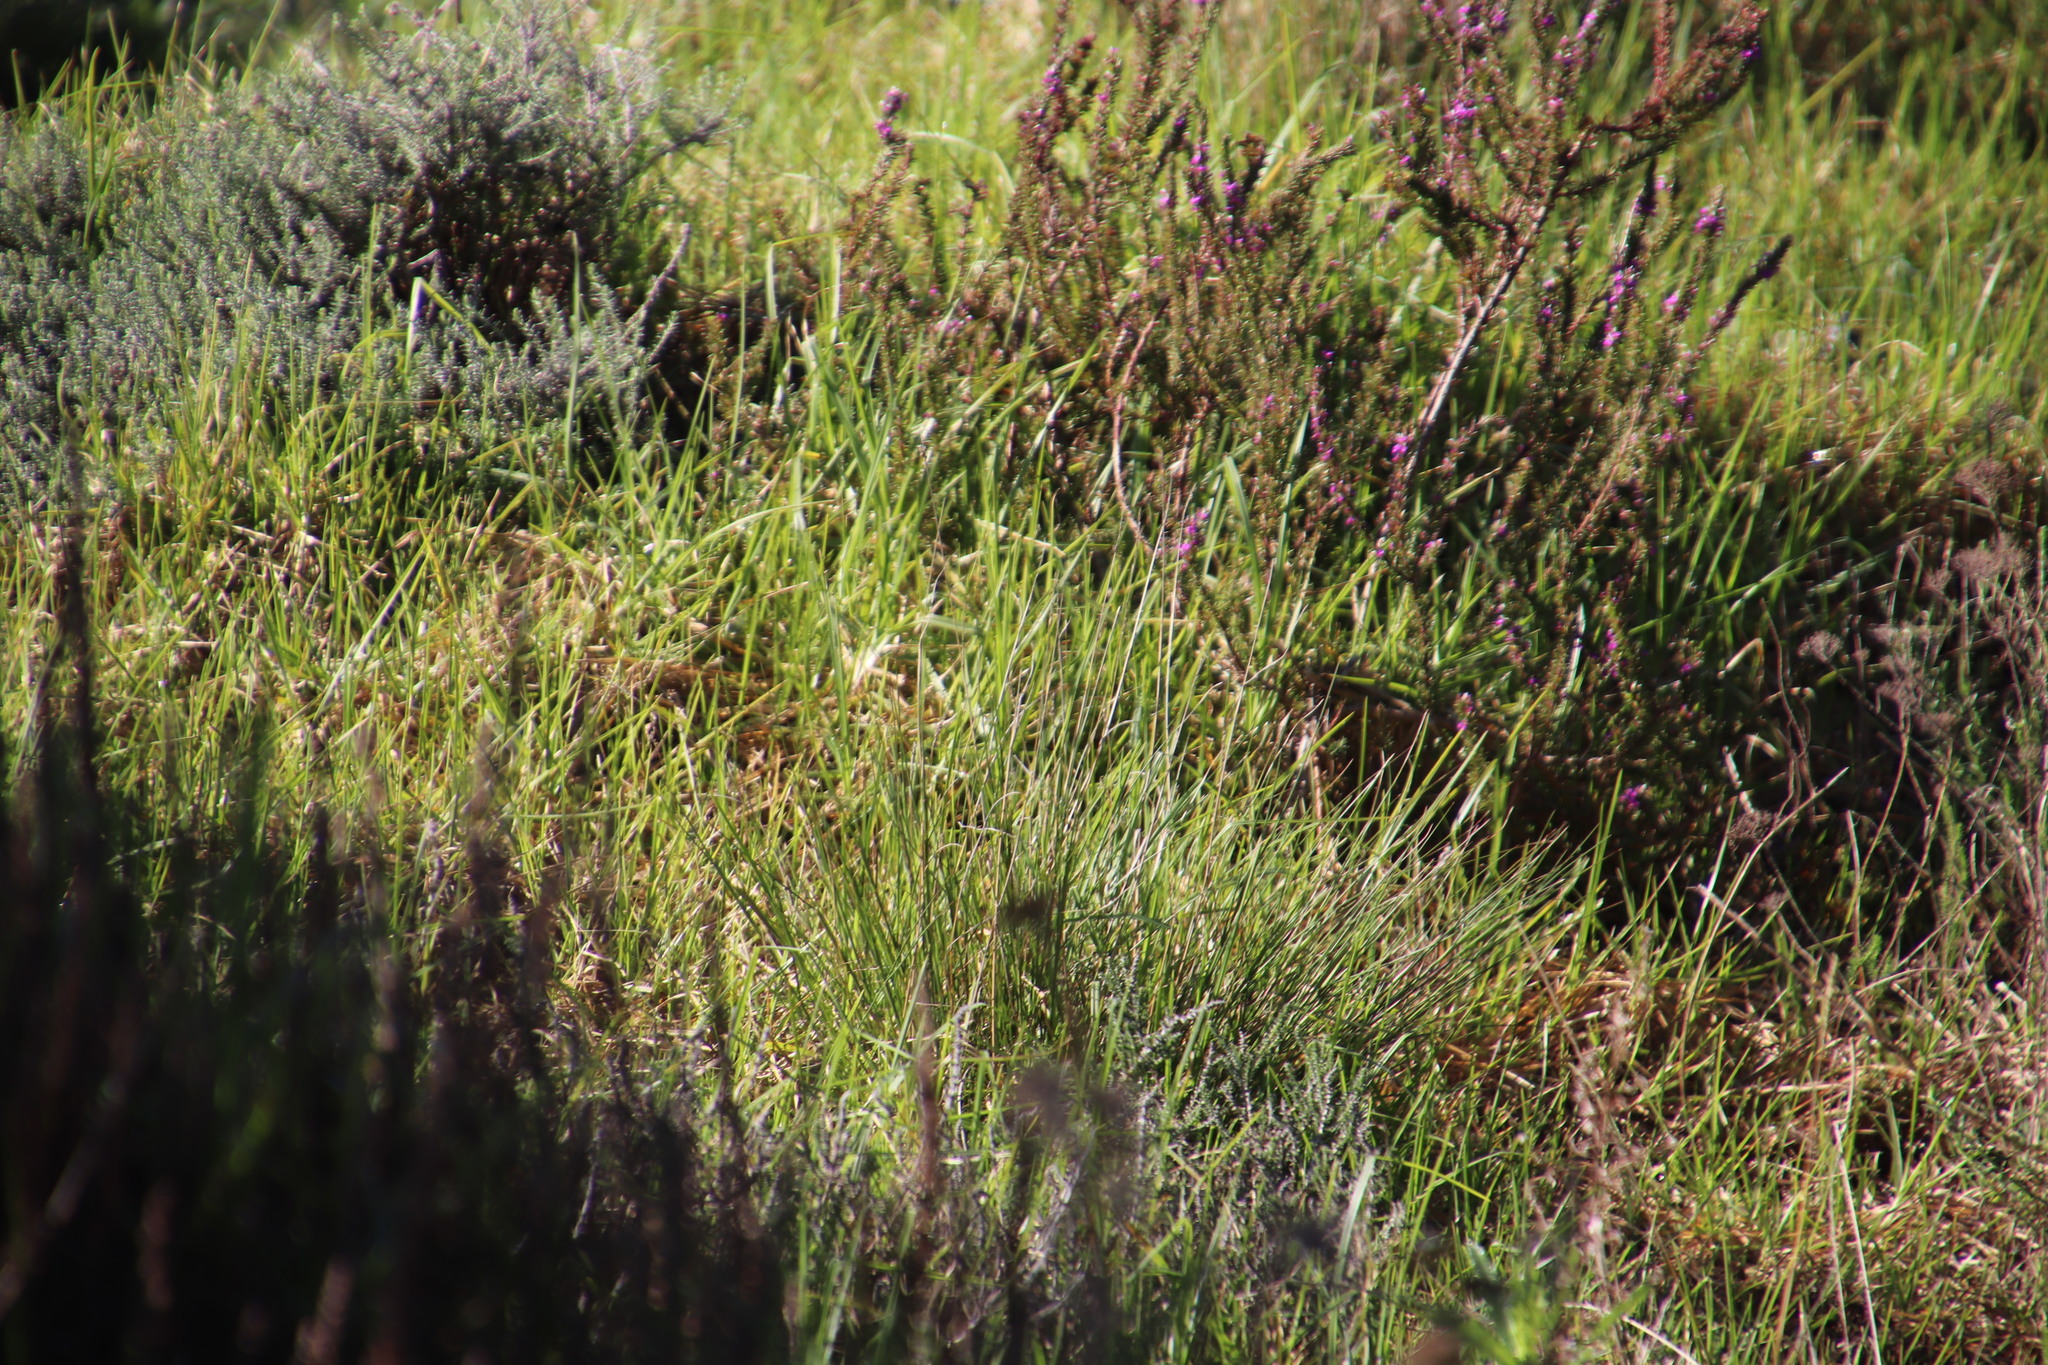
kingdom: Plantae
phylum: Tracheophyta
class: Liliopsida
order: Poales
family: Poaceae
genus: Cenchrus
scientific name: Cenchrus clandestinus
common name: Kikuyugrass
